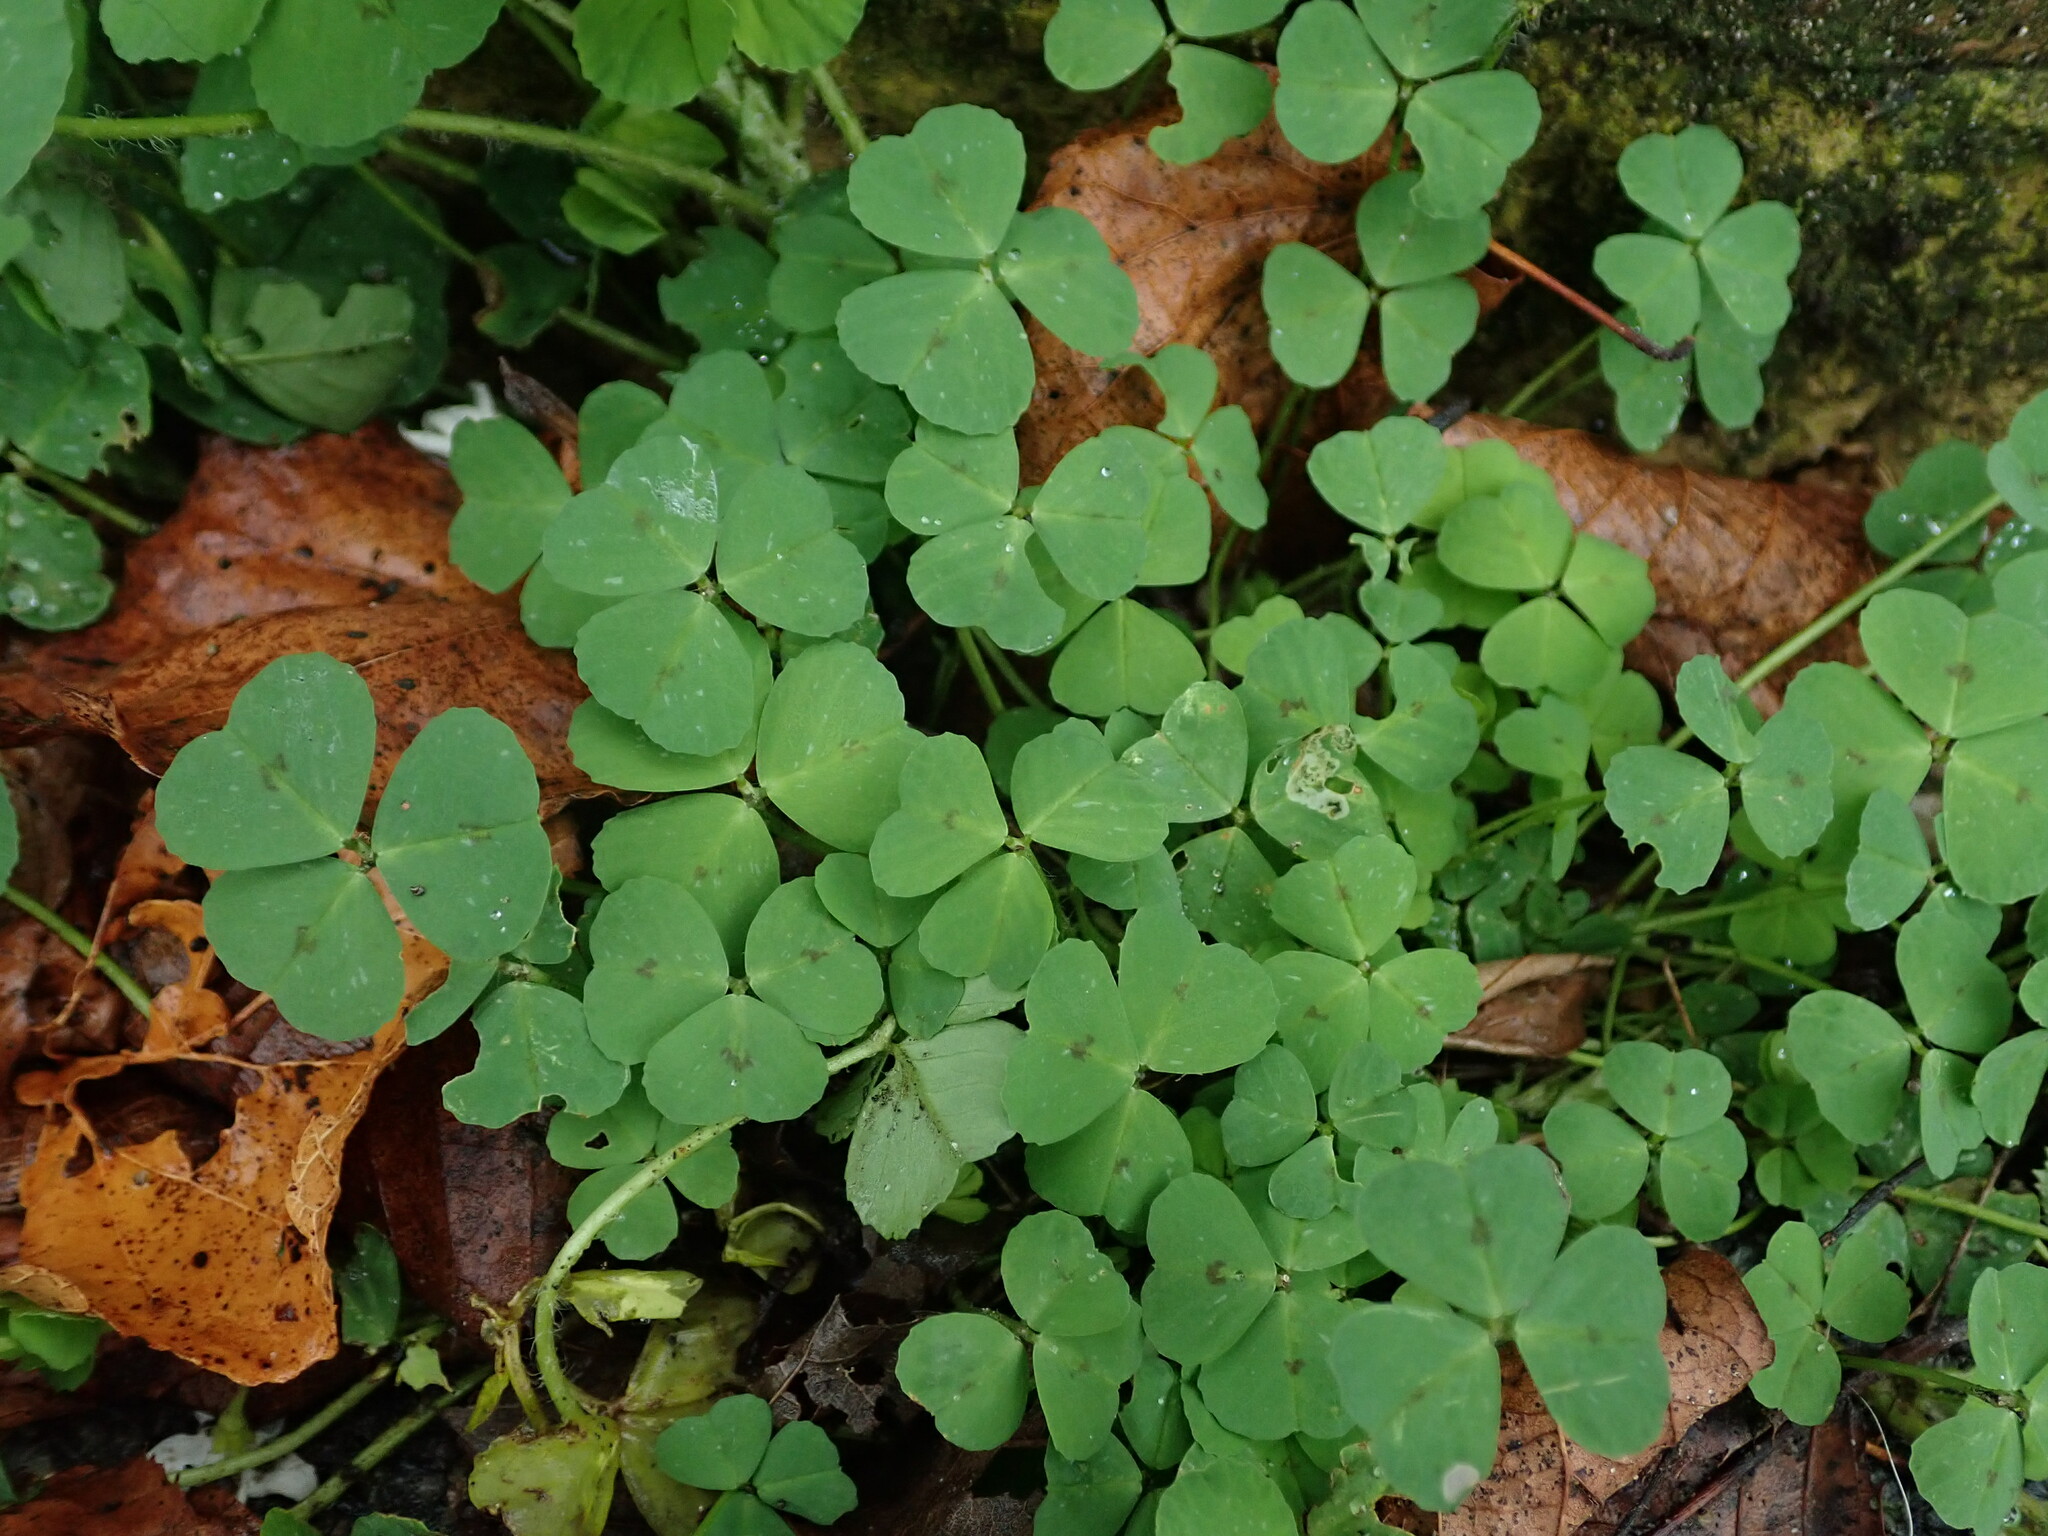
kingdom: Plantae
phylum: Tracheophyta
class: Magnoliopsida
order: Fabales
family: Fabaceae
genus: Medicago
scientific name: Medicago arabica
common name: Spotted medick
